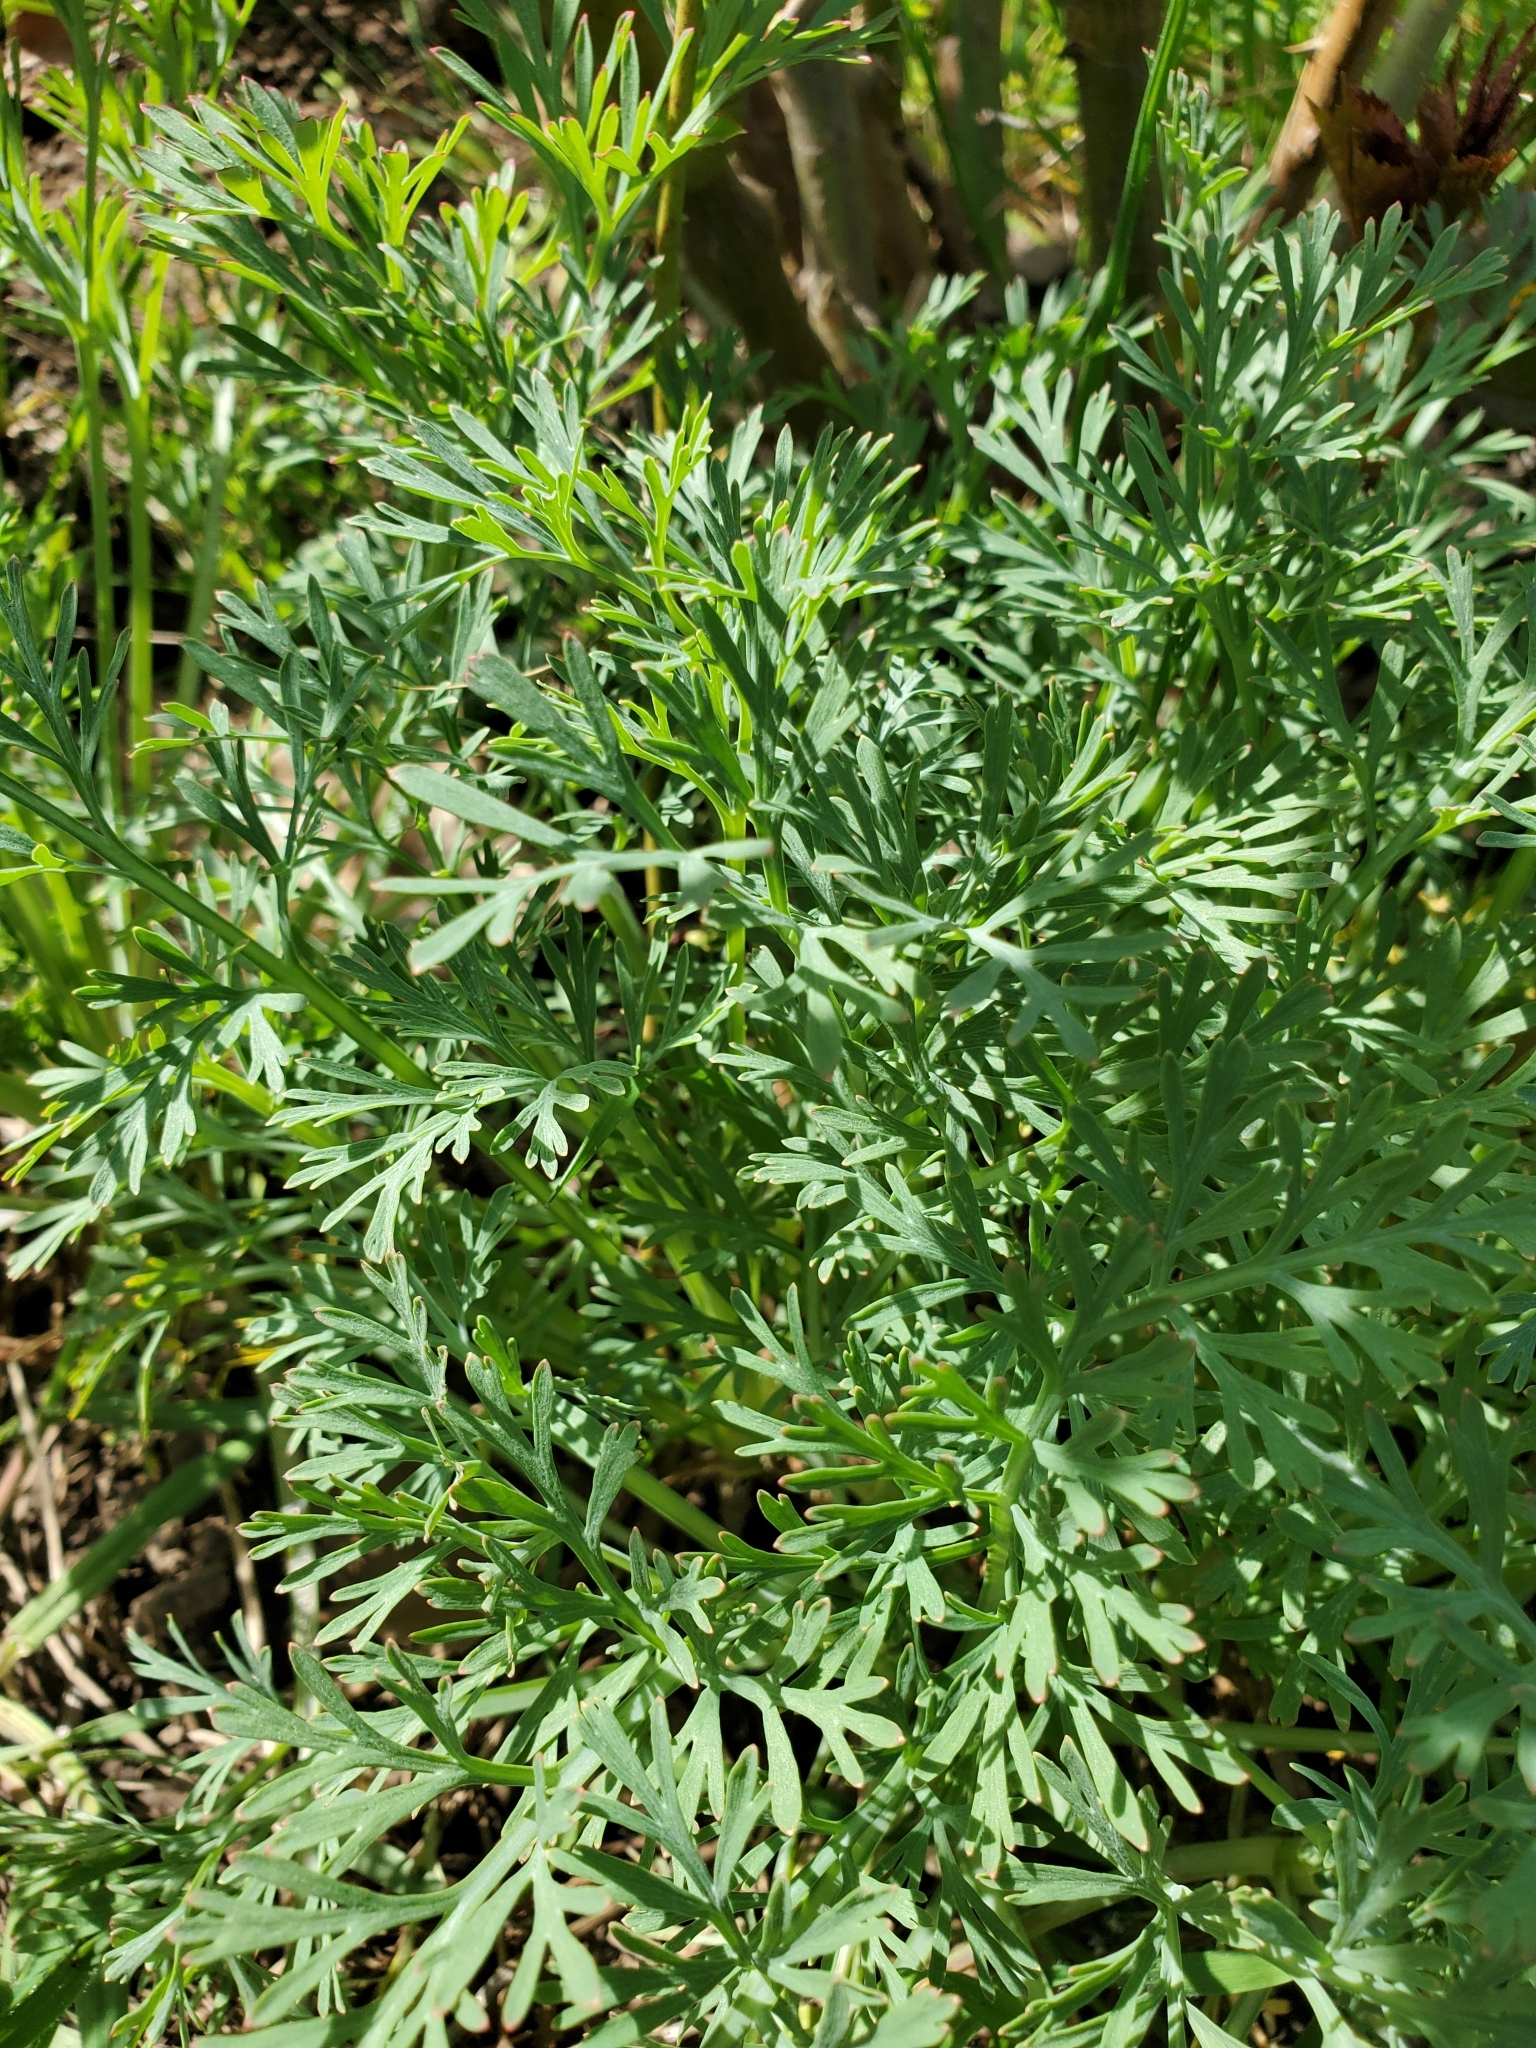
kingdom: Plantae
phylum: Tracheophyta
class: Magnoliopsida
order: Ranunculales
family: Papaveraceae
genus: Eschscholzia
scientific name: Eschscholzia californica
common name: California poppy
